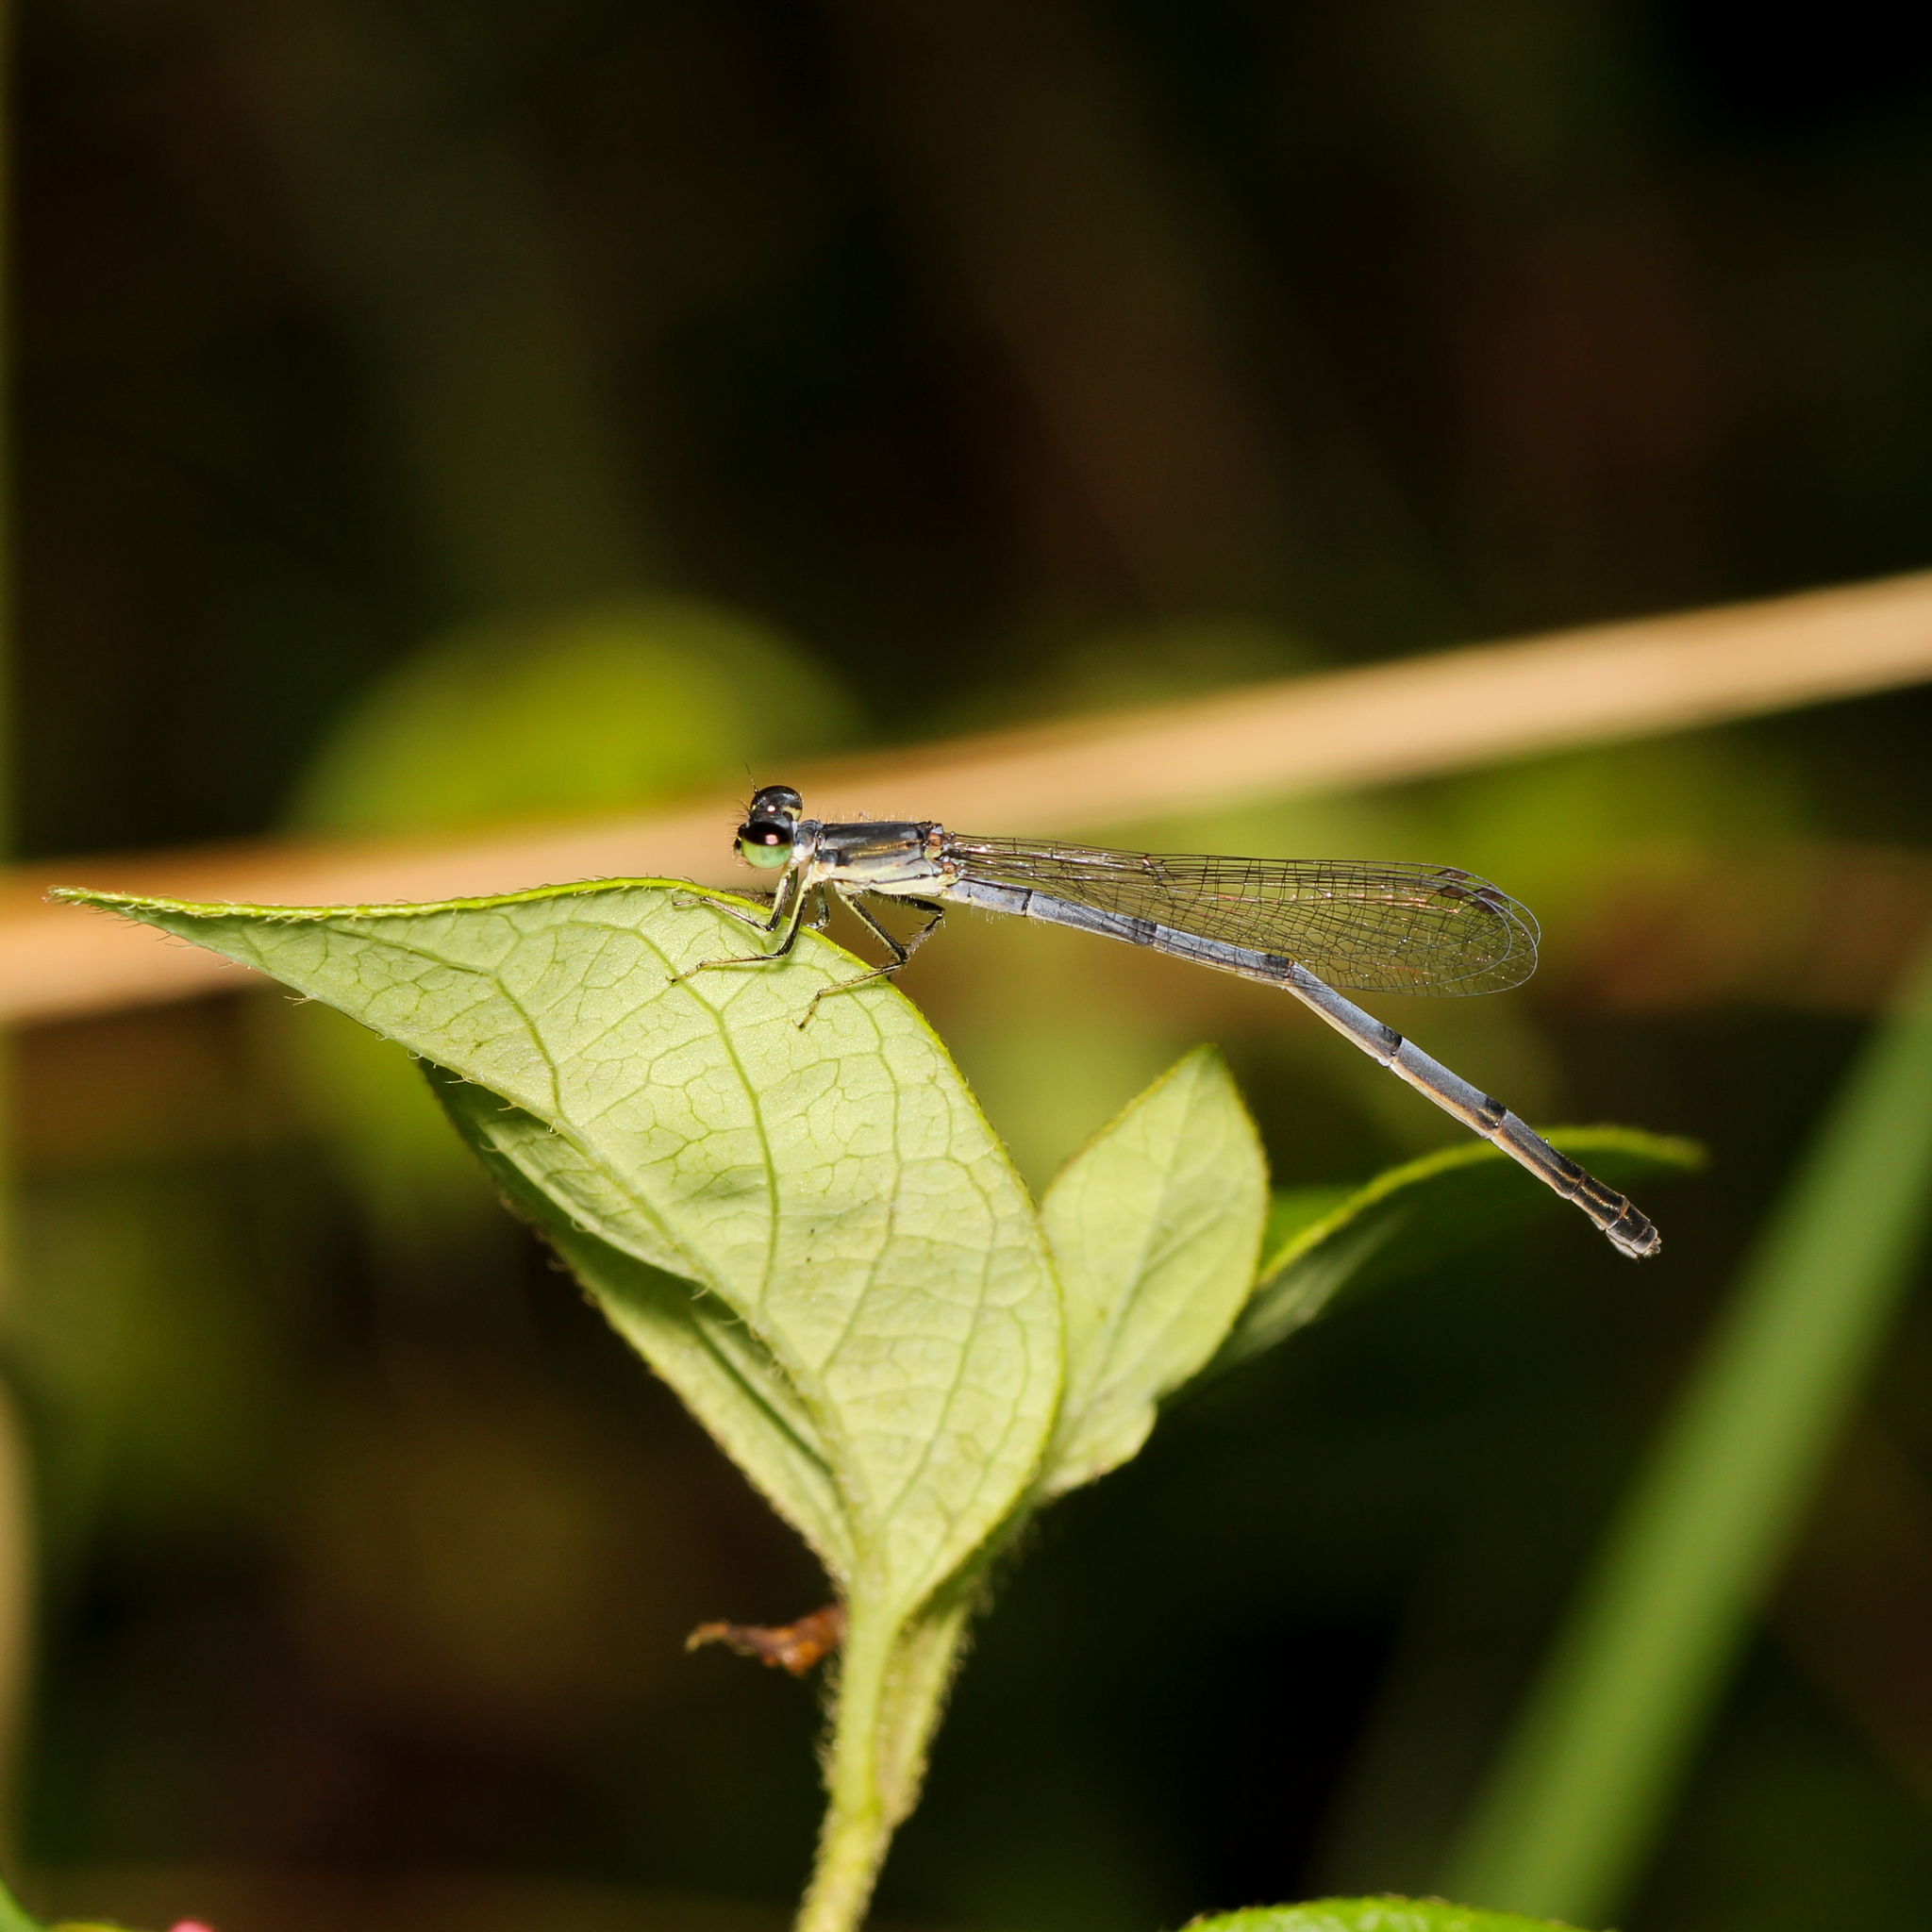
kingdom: Animalia
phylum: Arthropoda
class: Insecta
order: Odonata
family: Coenagrionidae
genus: Ischnura
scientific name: Ischnura posita
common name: Fragile forktail
